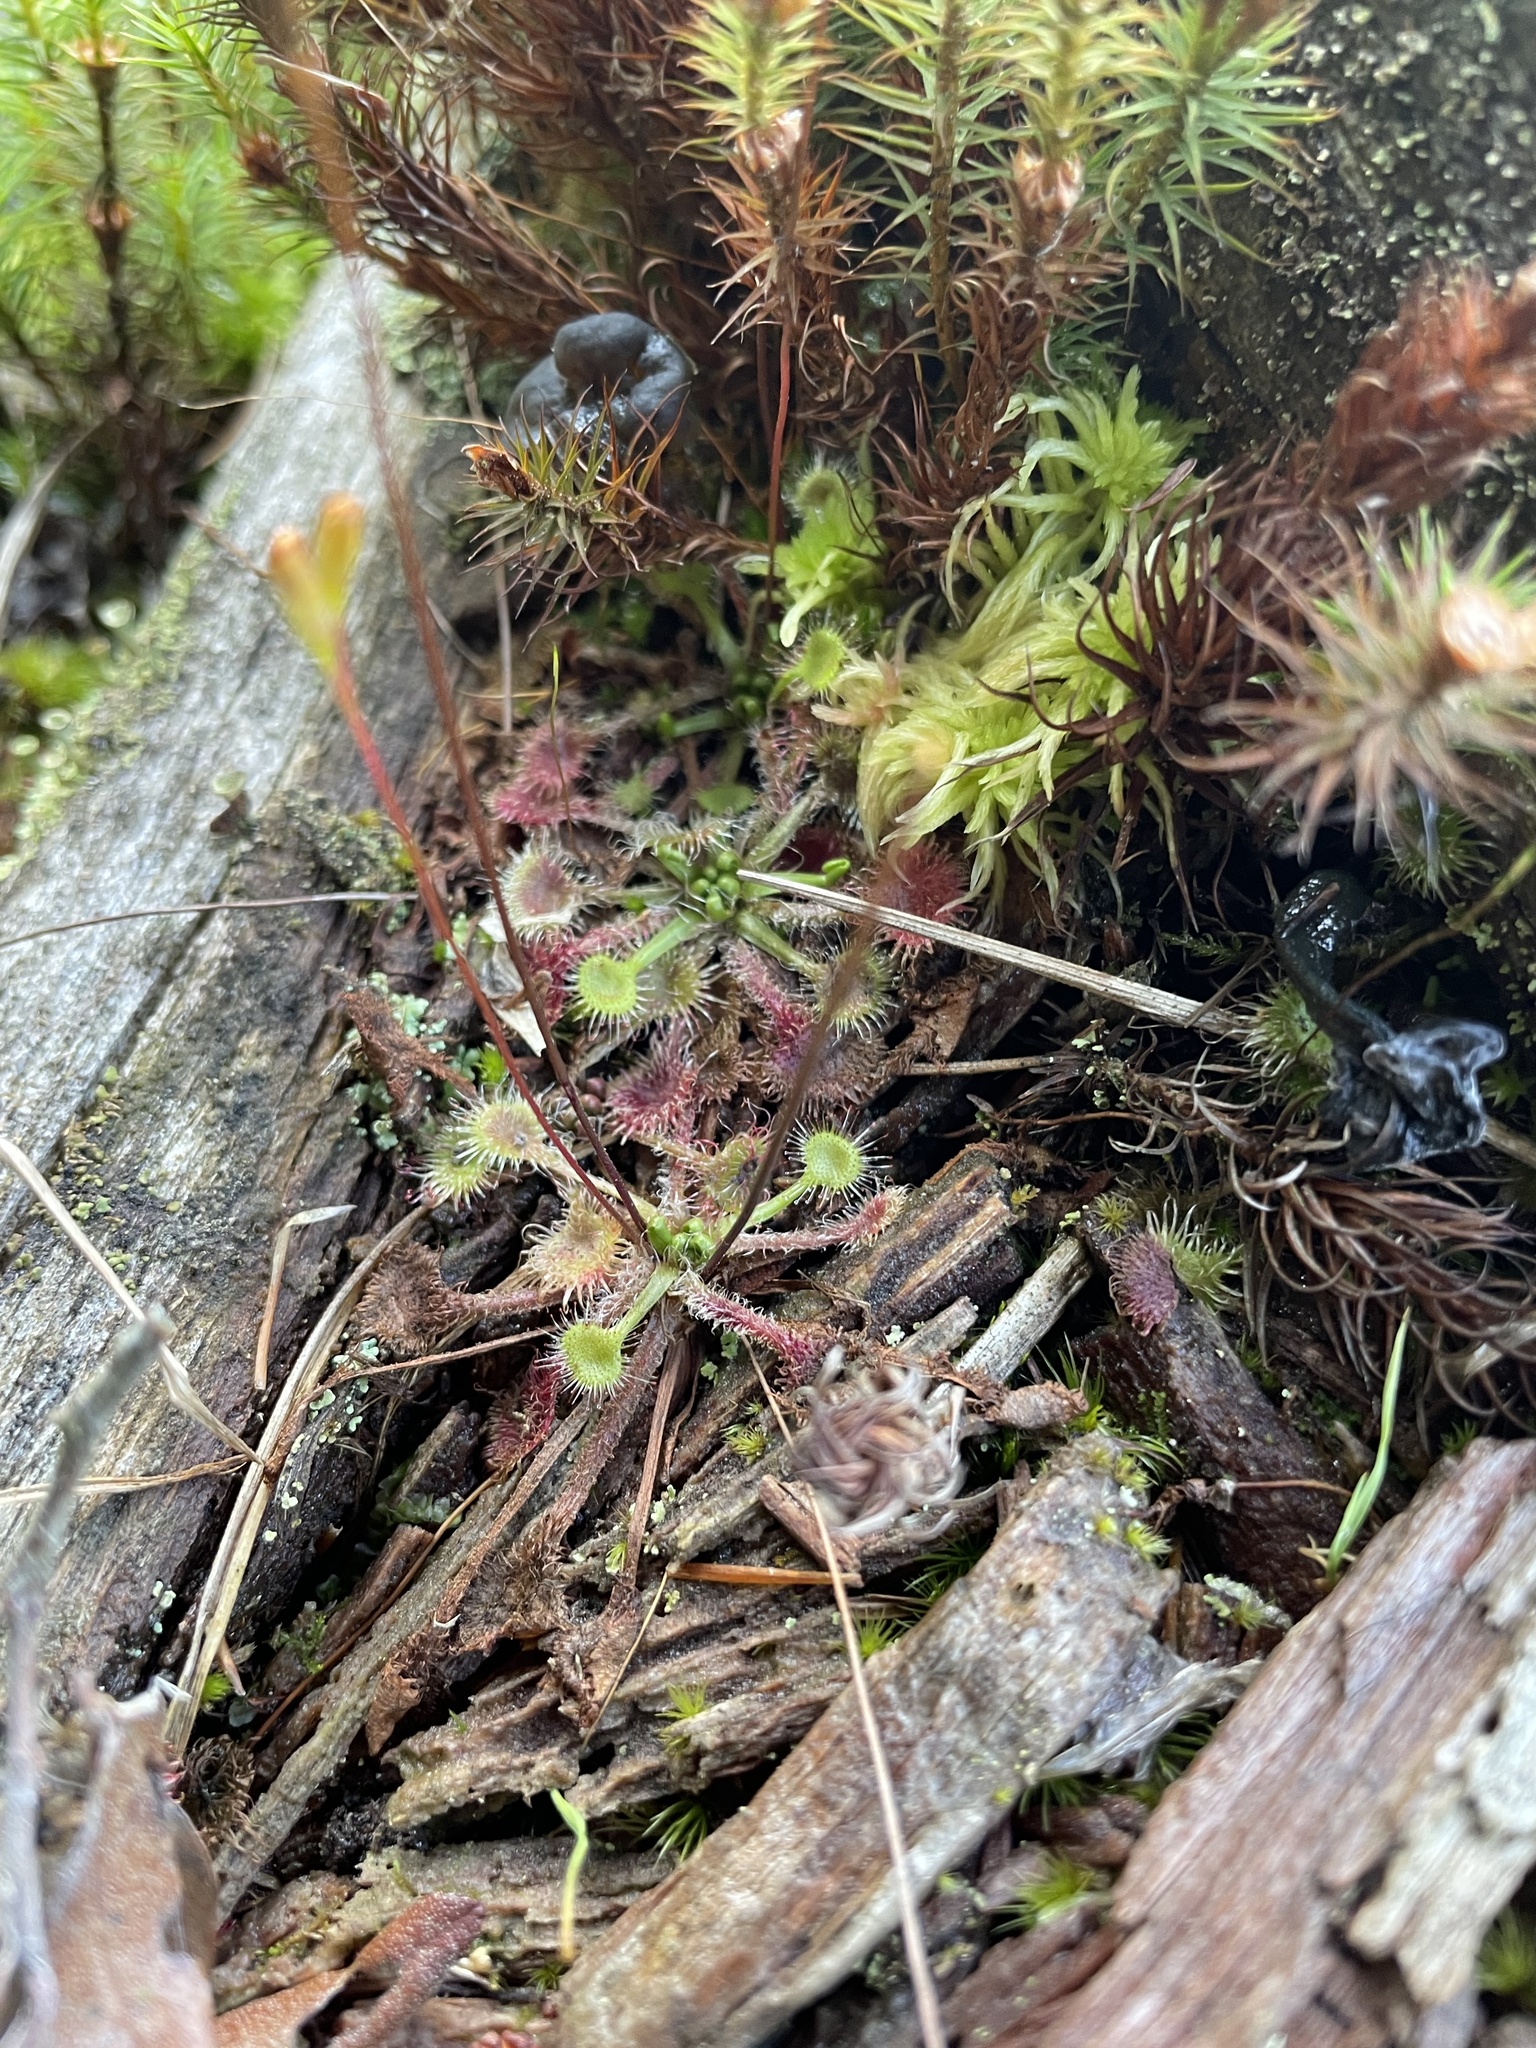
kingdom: Plantae
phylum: Tracheophyta
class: Magnoliopsida
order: Caryophyllales
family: Droseraceae
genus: Drosera
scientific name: Drosera rotundifolia
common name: Round-leaved sundew
